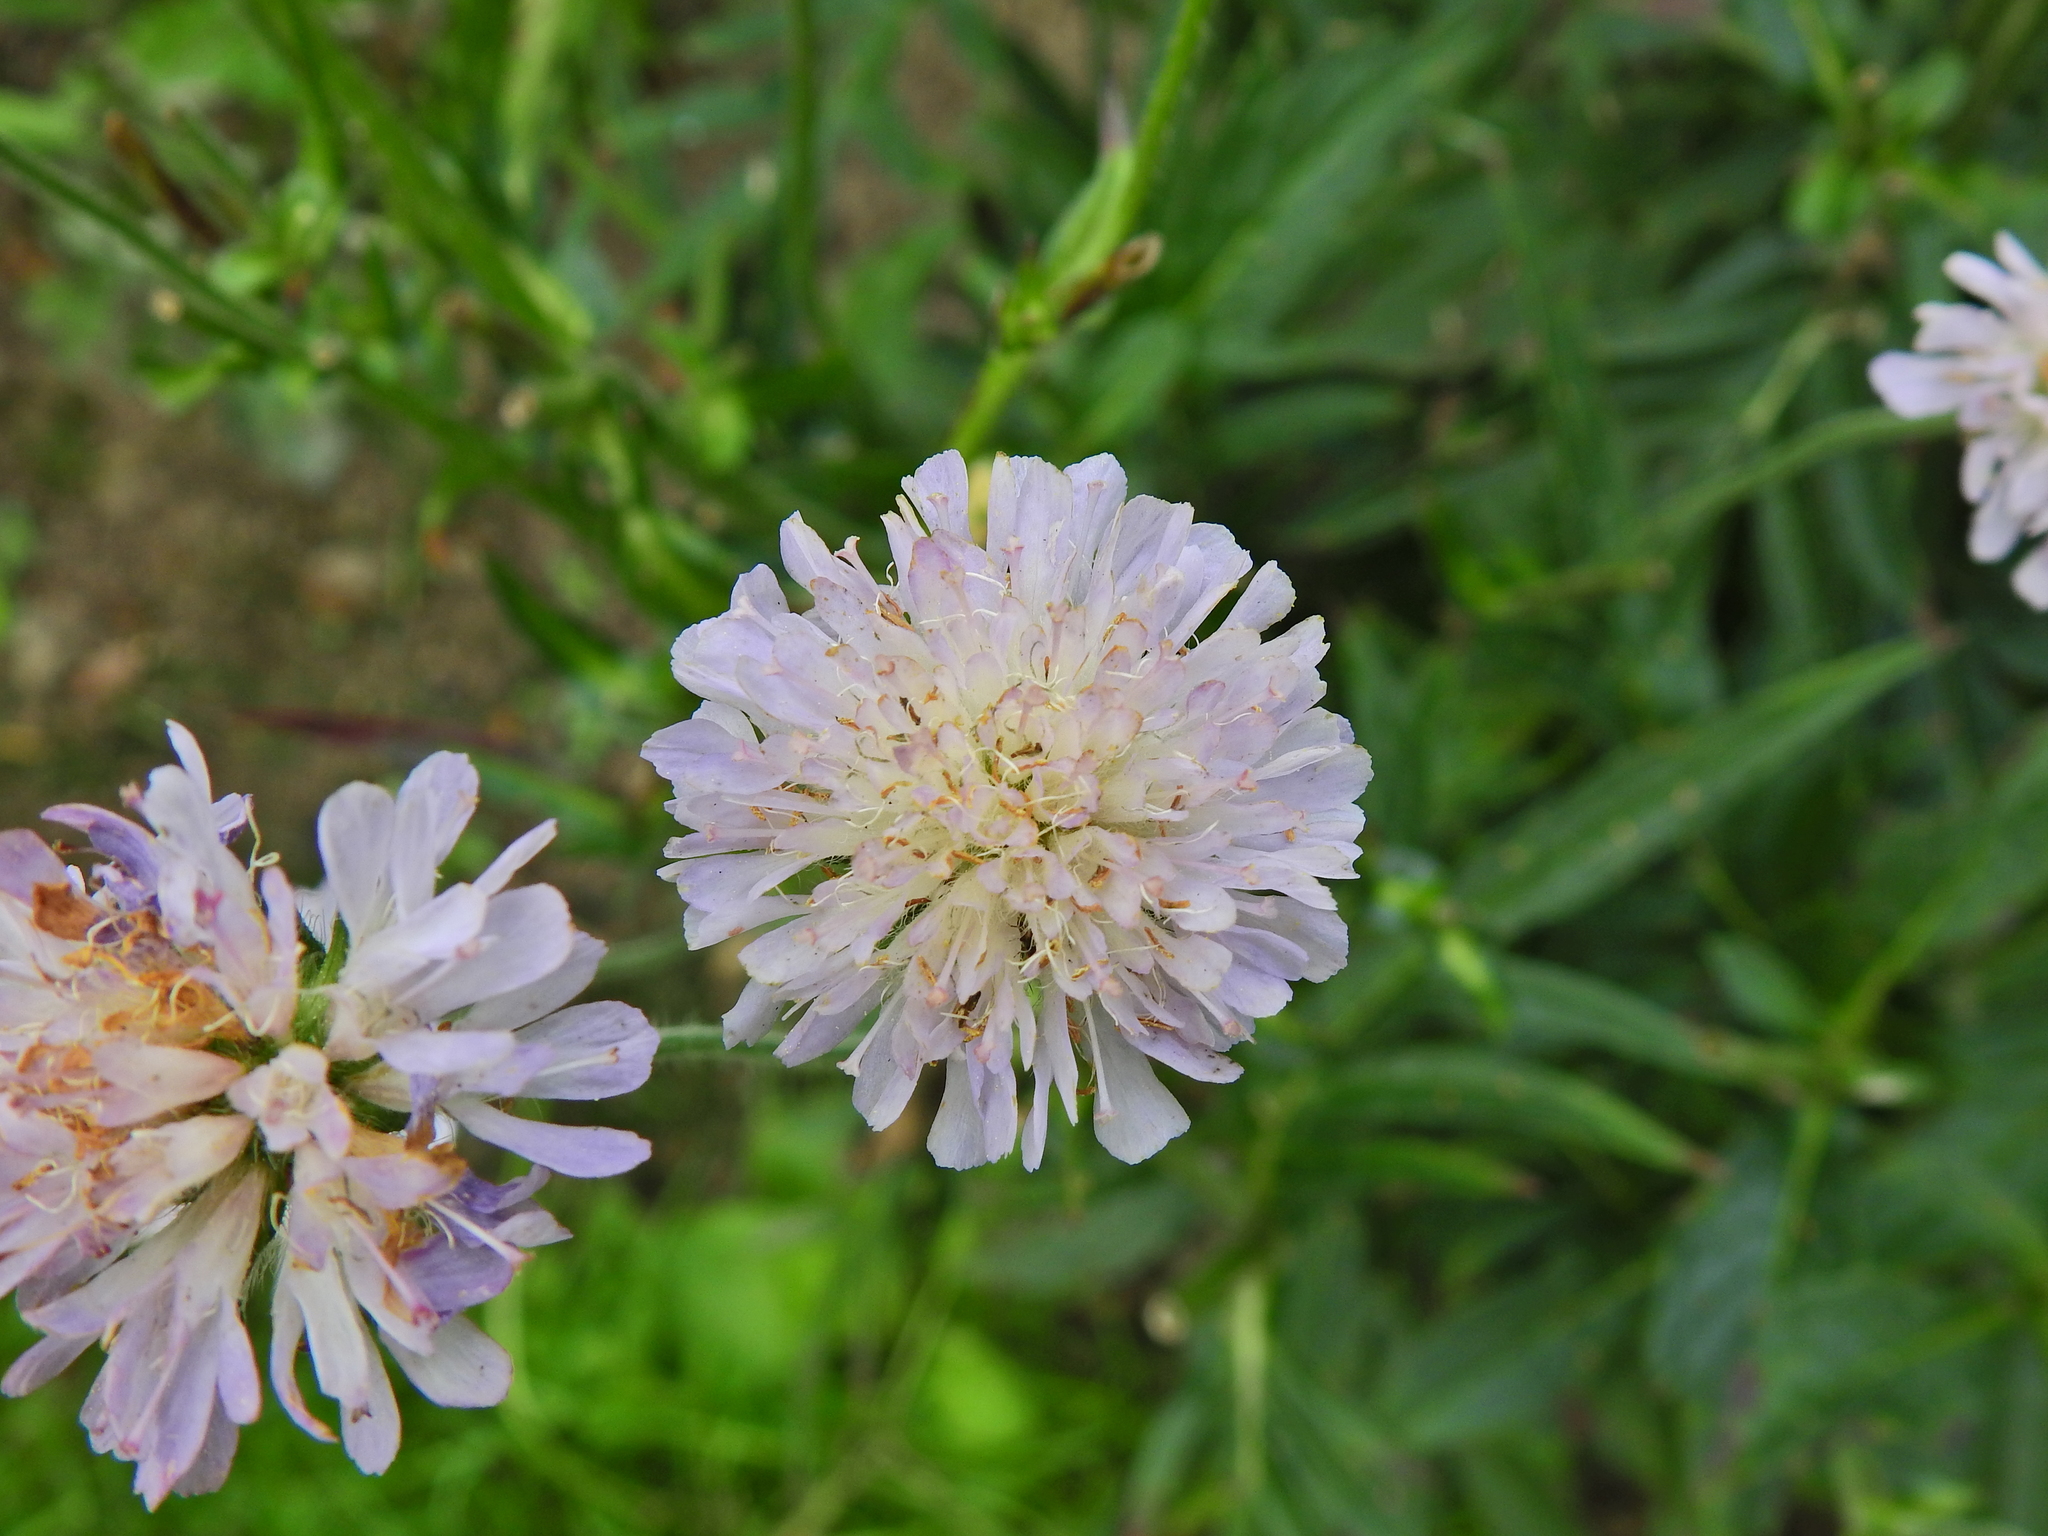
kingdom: Plantae
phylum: Tracheophyta
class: Magnoliopsida
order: Dipsacales
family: Caprifoliaceae
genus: Knautia
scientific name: Knautia arvensis
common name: Field scabiosa
